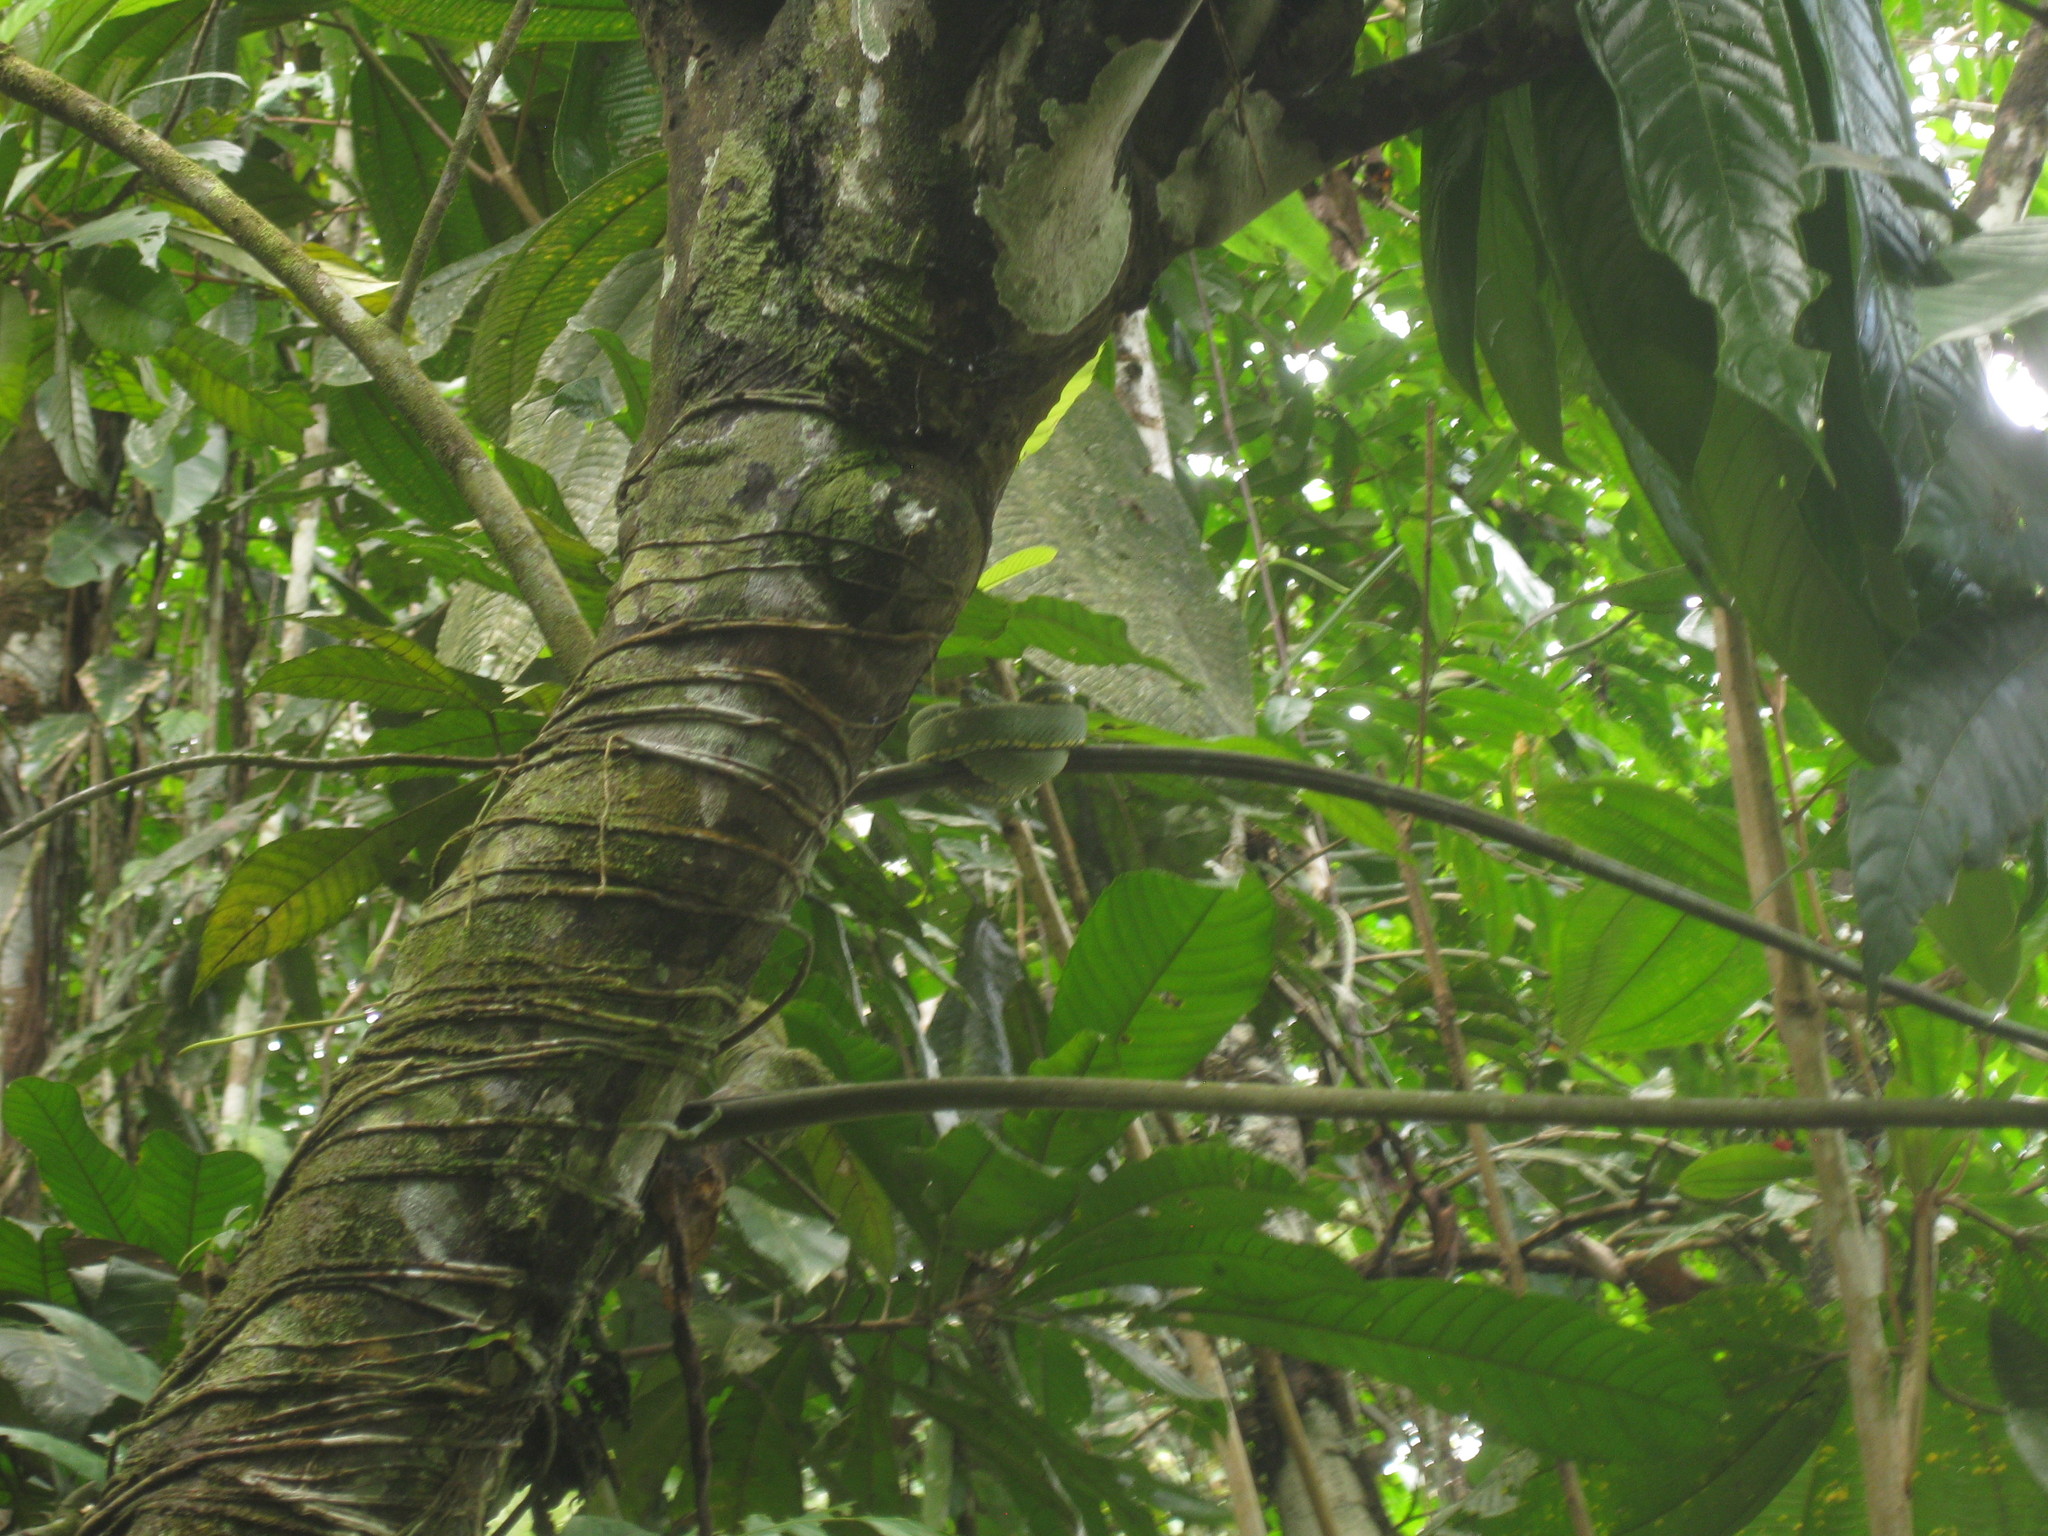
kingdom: Animalia
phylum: Chordata
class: Squamata
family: Viperidae
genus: Bothrops
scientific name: Bothrops bilineatus
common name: Green jararaca
